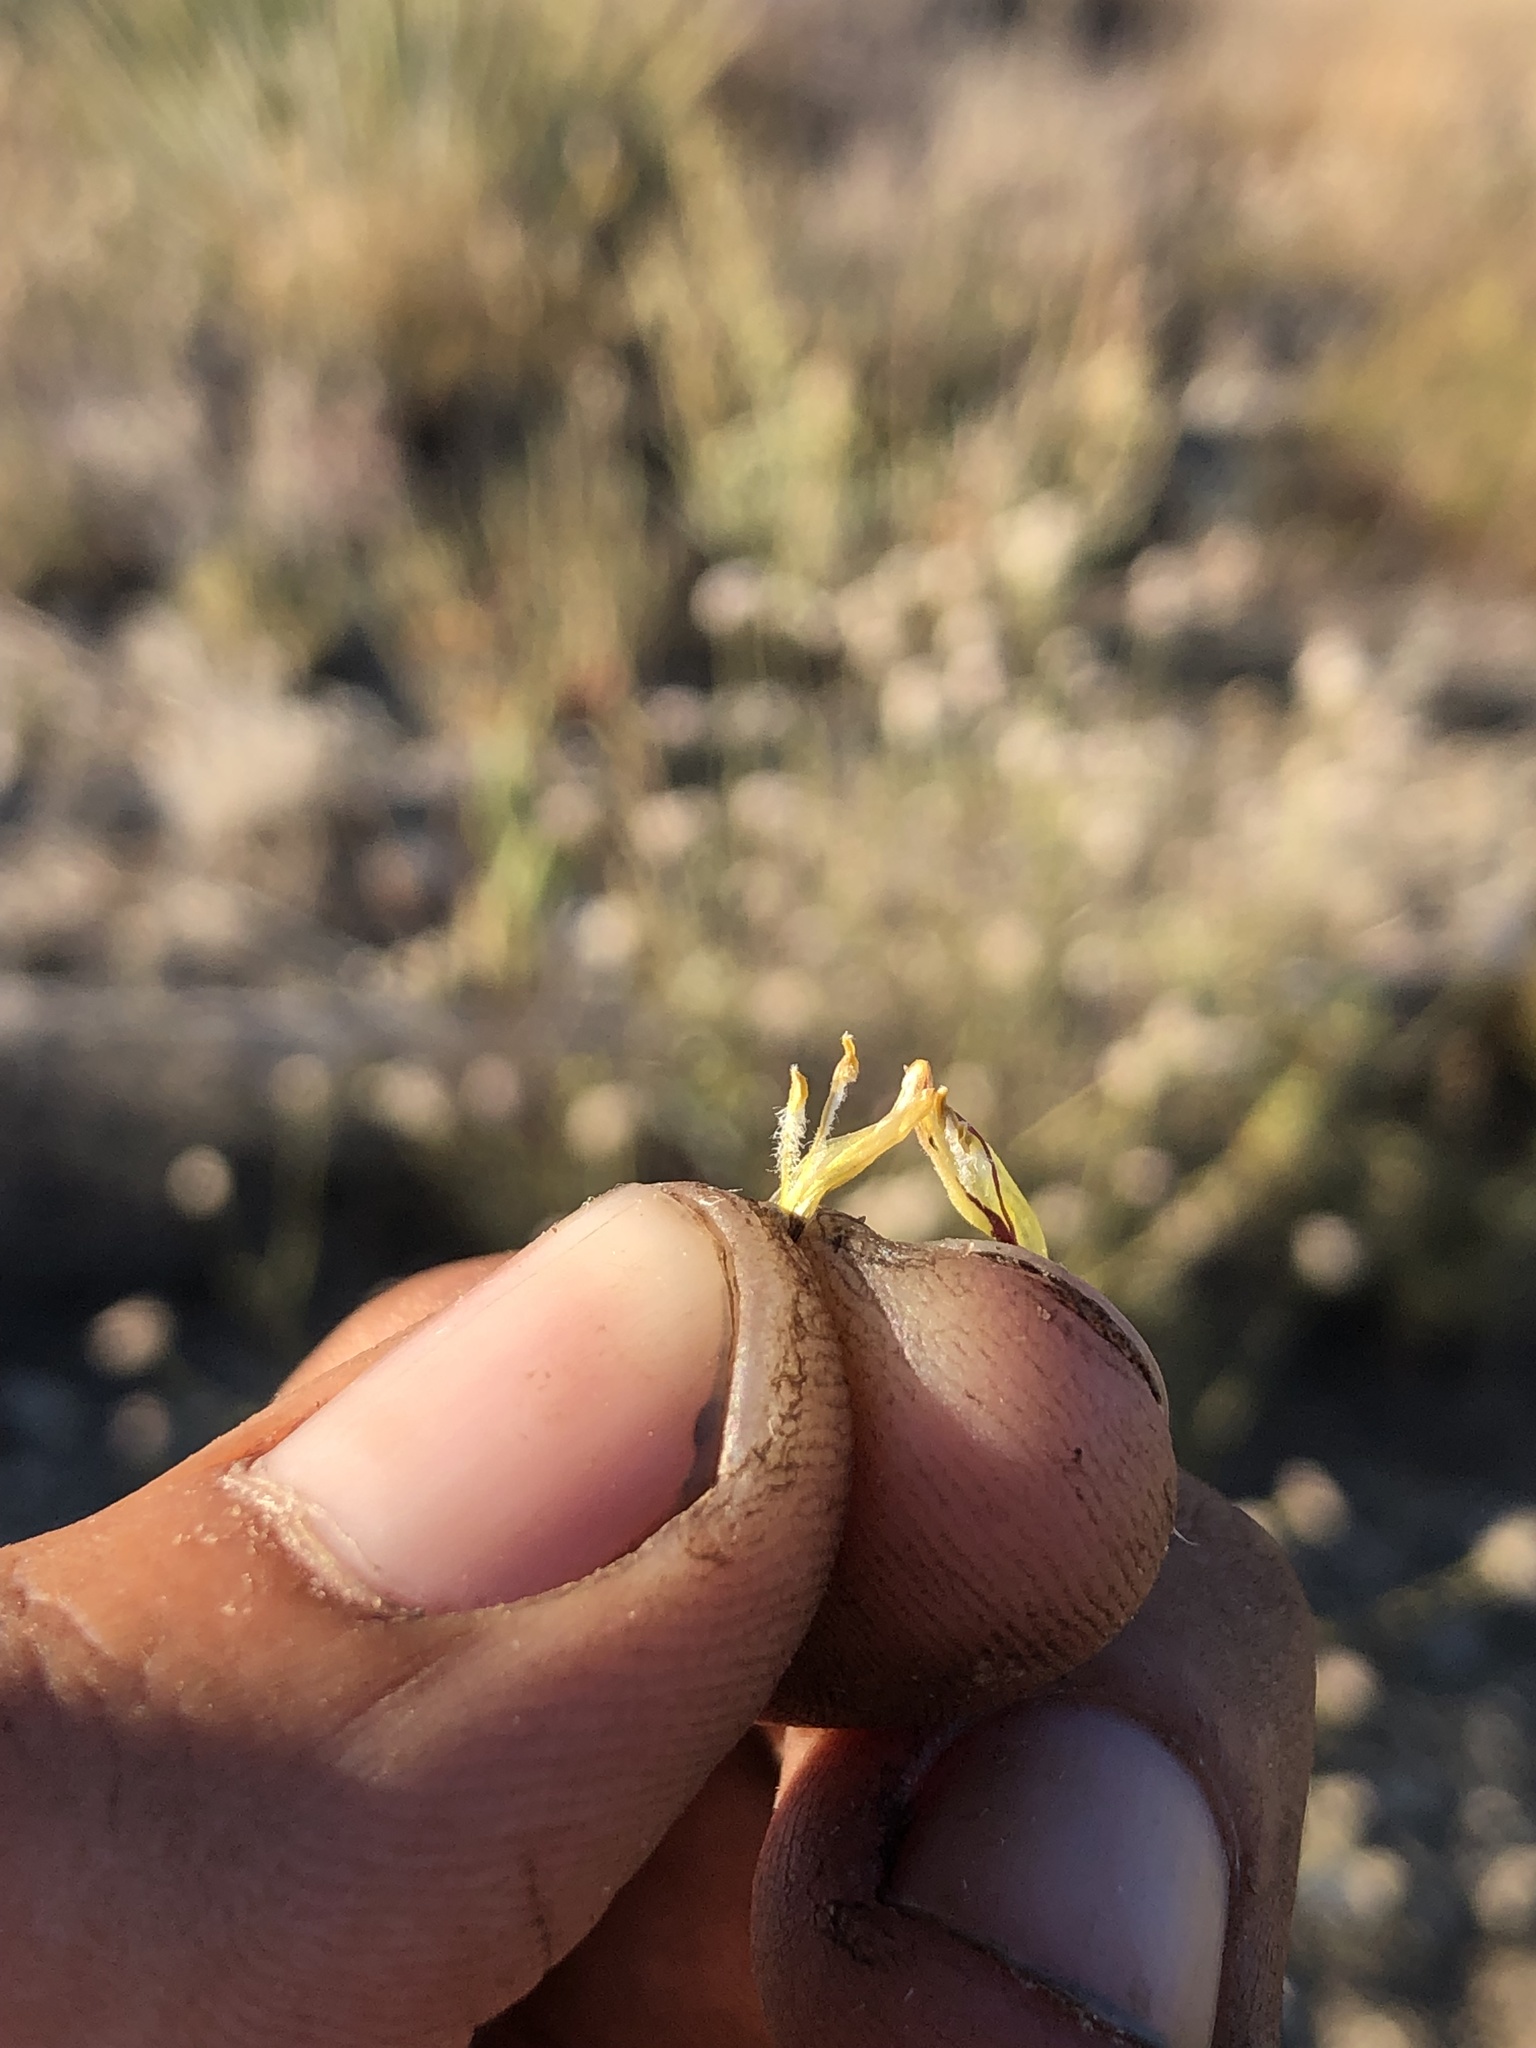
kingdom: Plantae
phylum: Tracheophyta
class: Magnoliopsida
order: Lamiales
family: Orobanchaceae
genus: Cordylanthus
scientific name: Cordylanthus rigidus
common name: Stiff-branch bird's-beak
